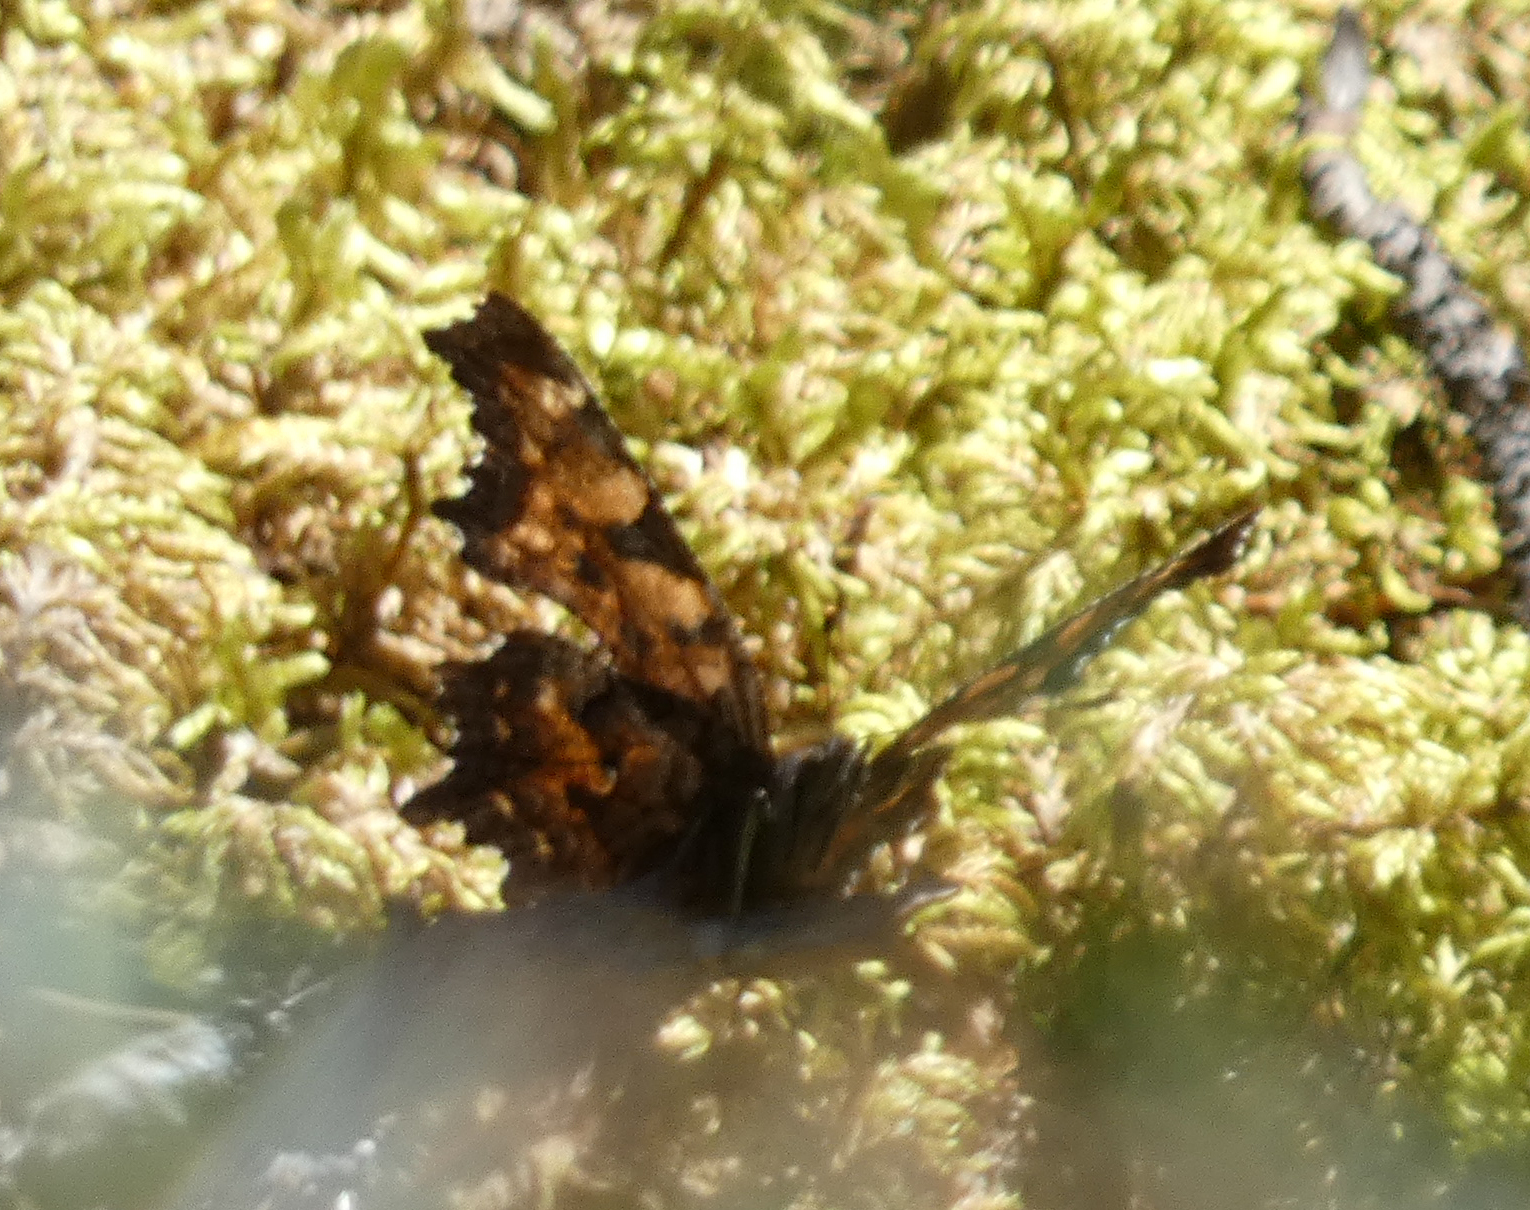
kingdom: Animalia
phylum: Arthropoda
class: Insecta
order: Lepidoptera
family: Nymphalidae
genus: Polygonia
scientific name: Polygonia faunus
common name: Green comma
